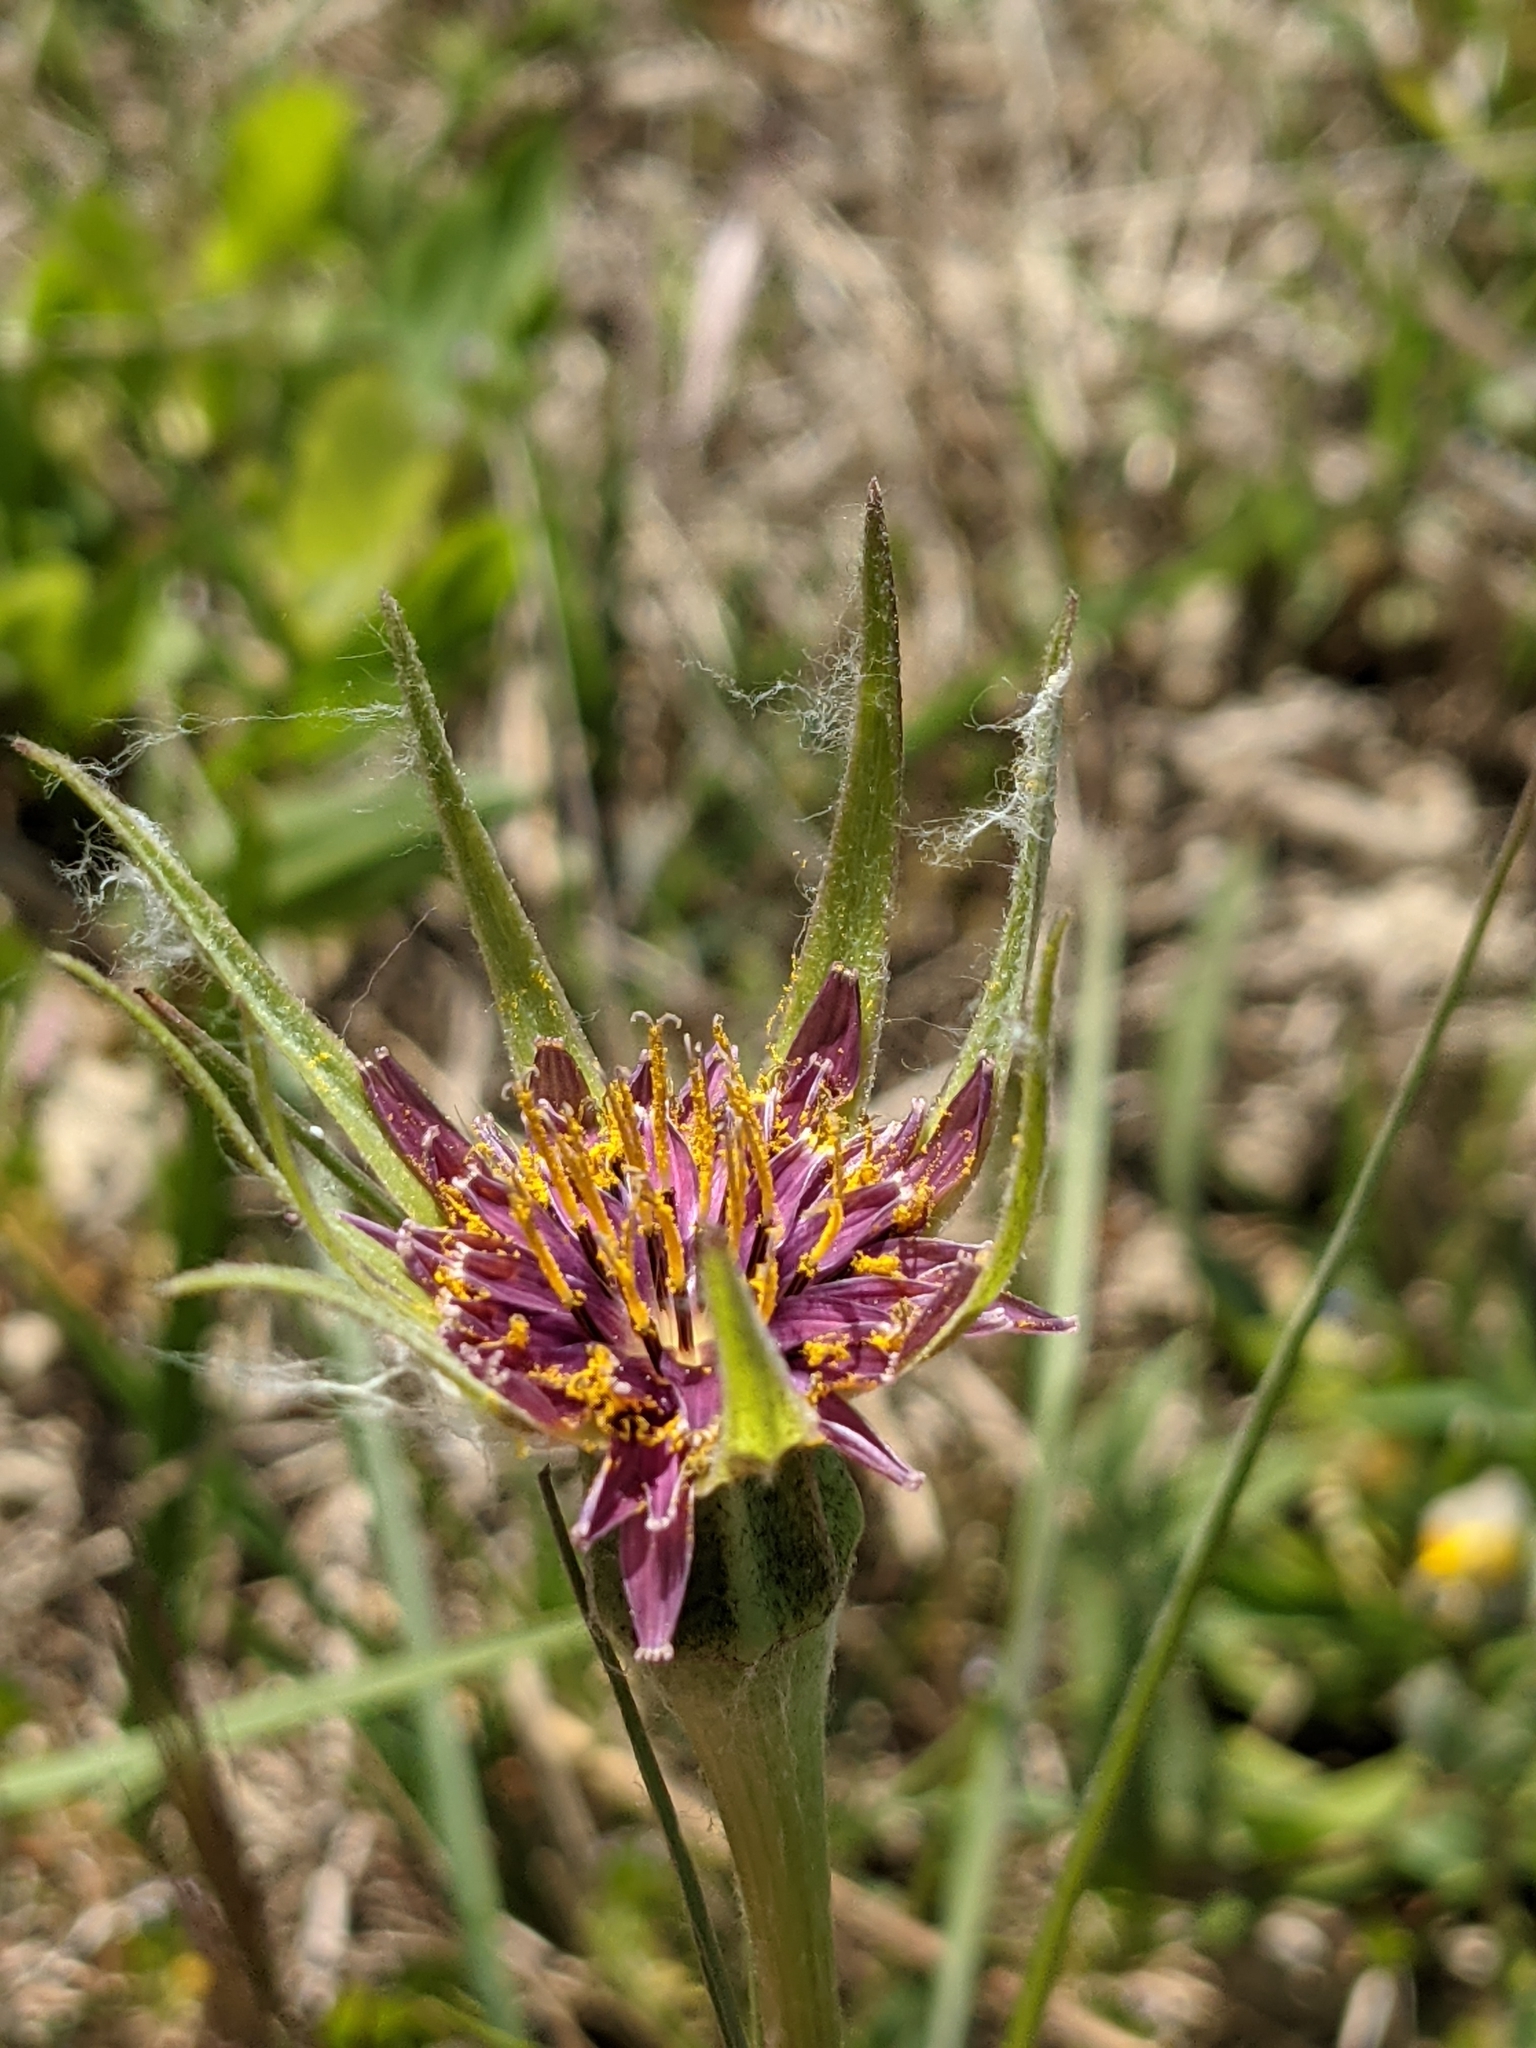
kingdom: Plantae
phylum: Tracheophyta
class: Magnoliopsida
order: Asterales
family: Asteraceae
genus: Tragopogon
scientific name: Tragopogon porrifolius
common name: Salsify
